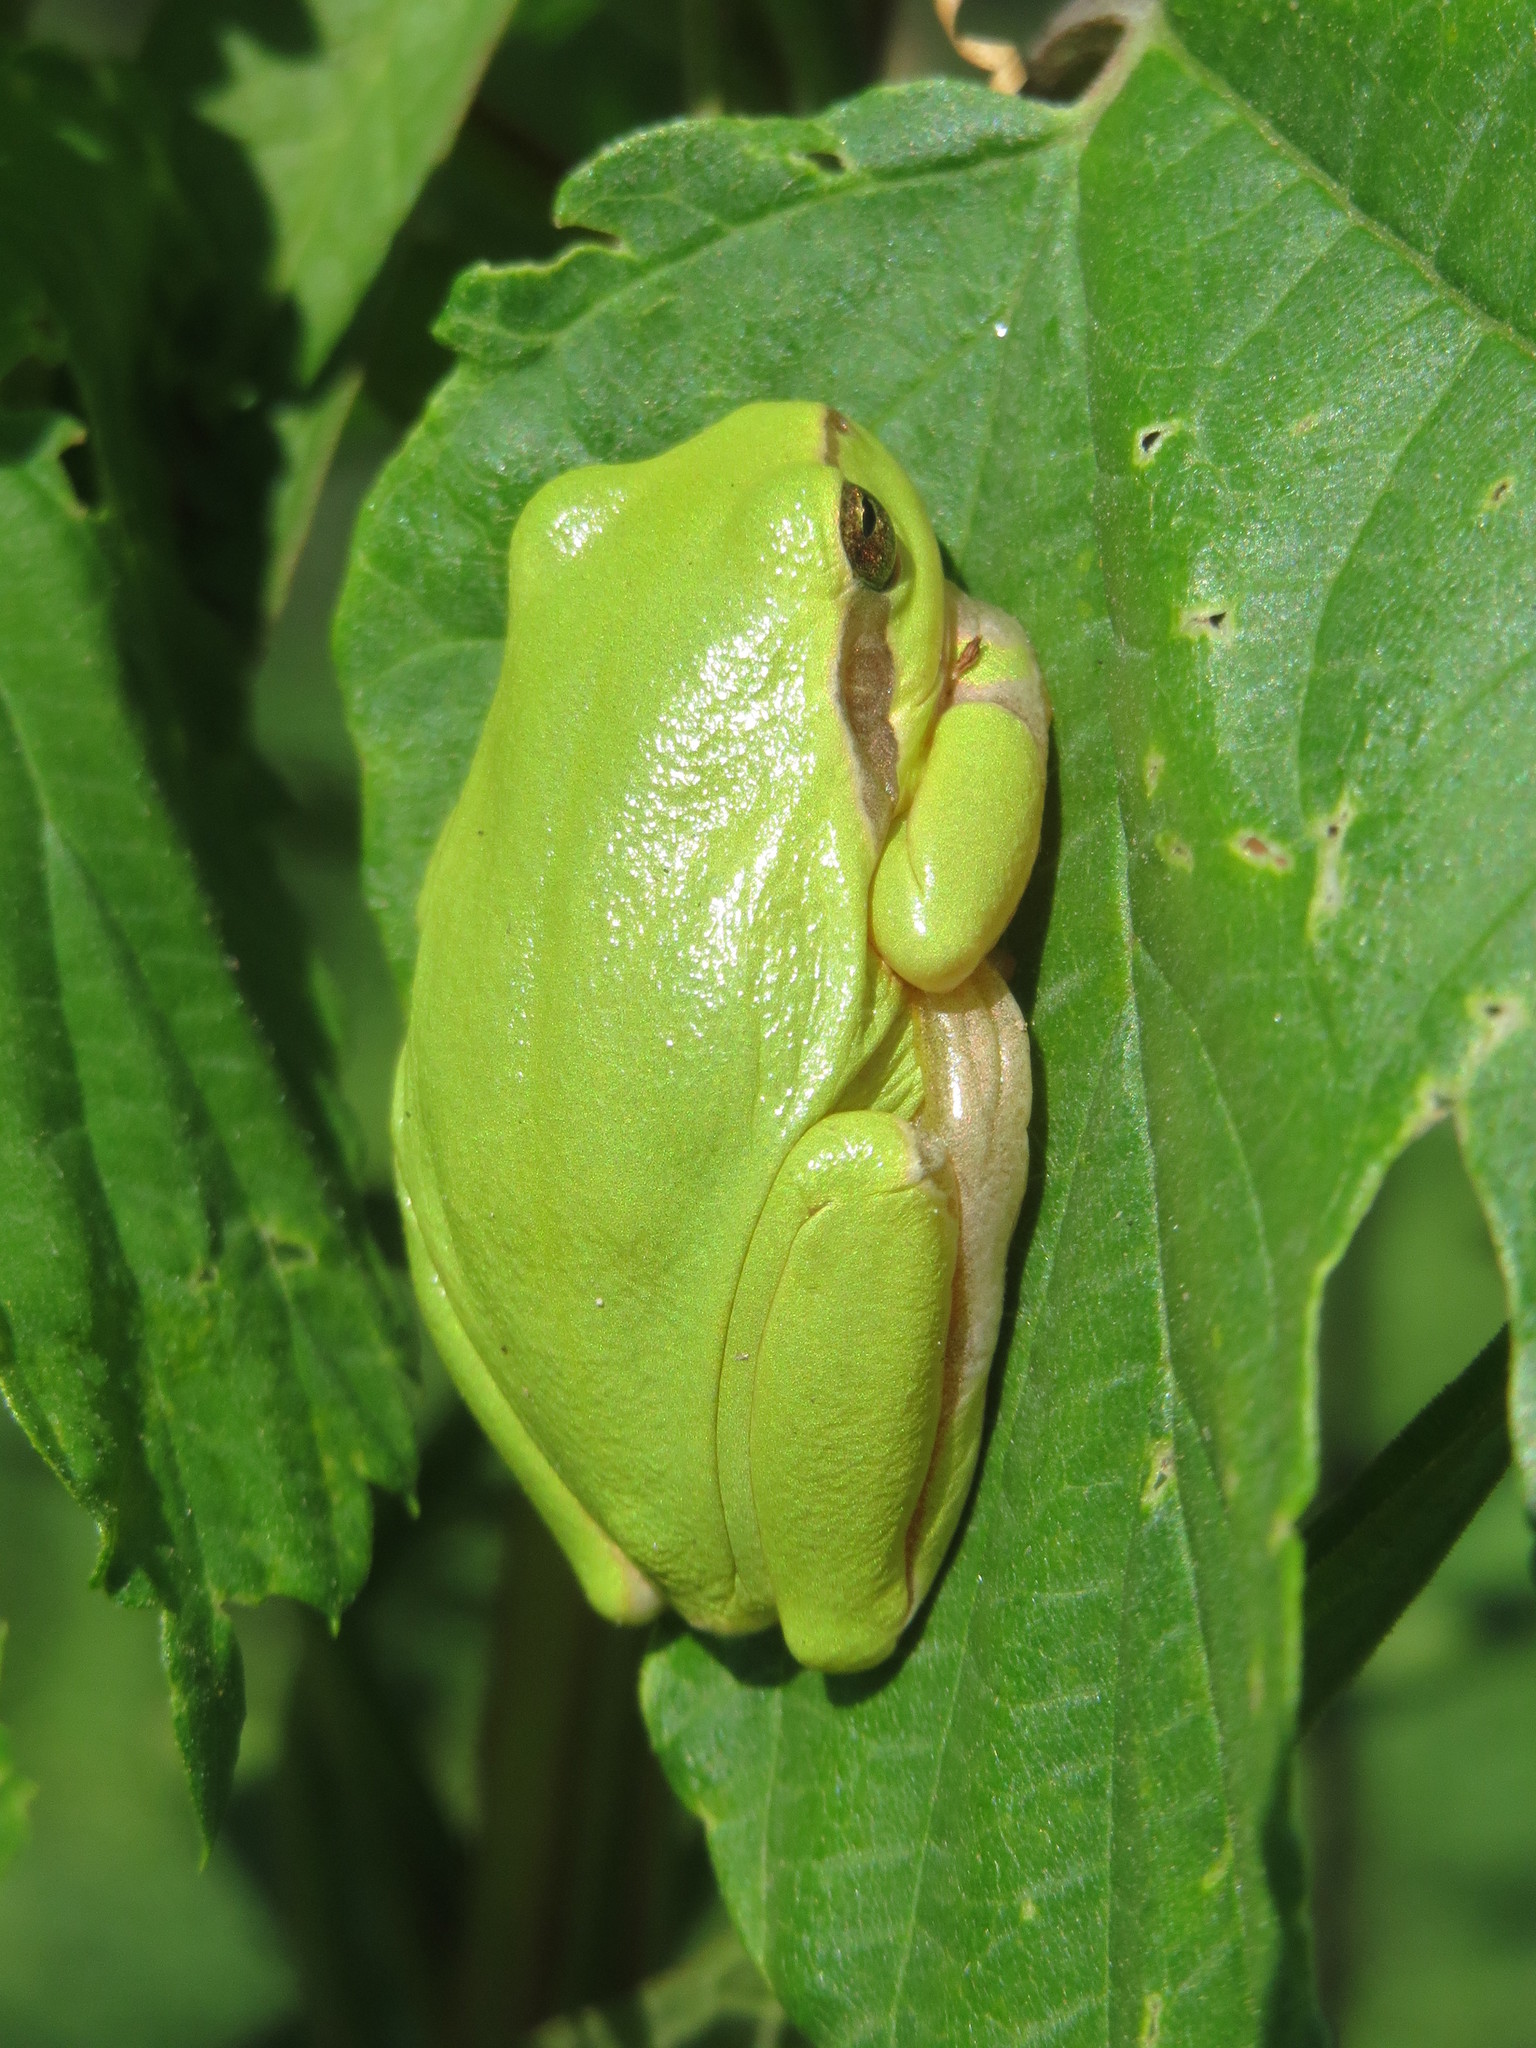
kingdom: Animalia
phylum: Chordata
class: Amphibia
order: Anura
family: Hylidae
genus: Hyla
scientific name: Hyla arborea
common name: Common tree frog
